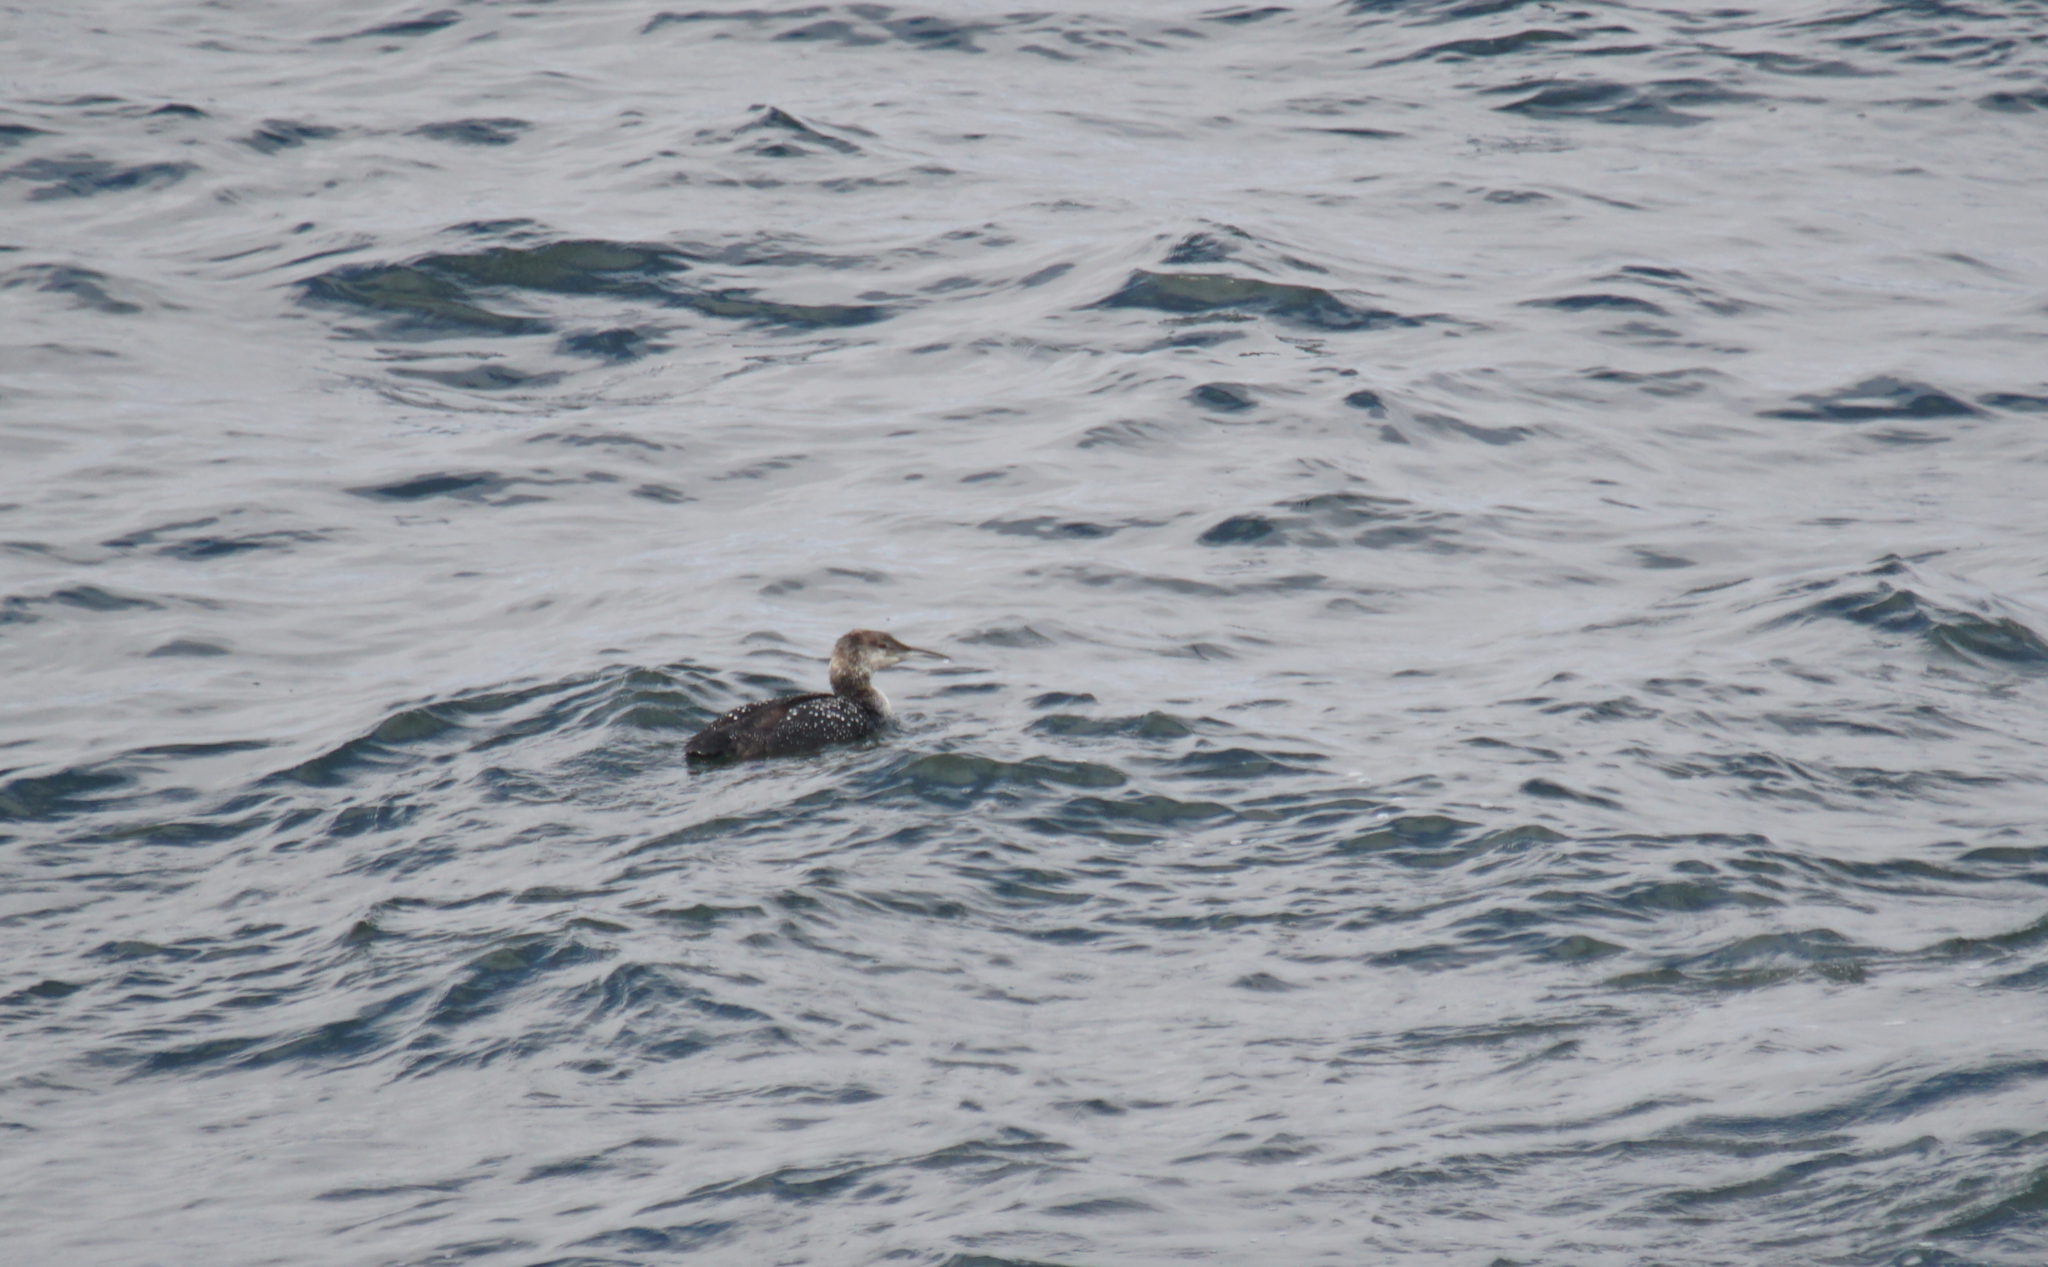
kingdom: Animalia
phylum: Chordata
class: Aves
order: Gaviiformes
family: Gaviidae
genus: Gavia
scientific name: Gavia pacifica
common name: Pacific loon
